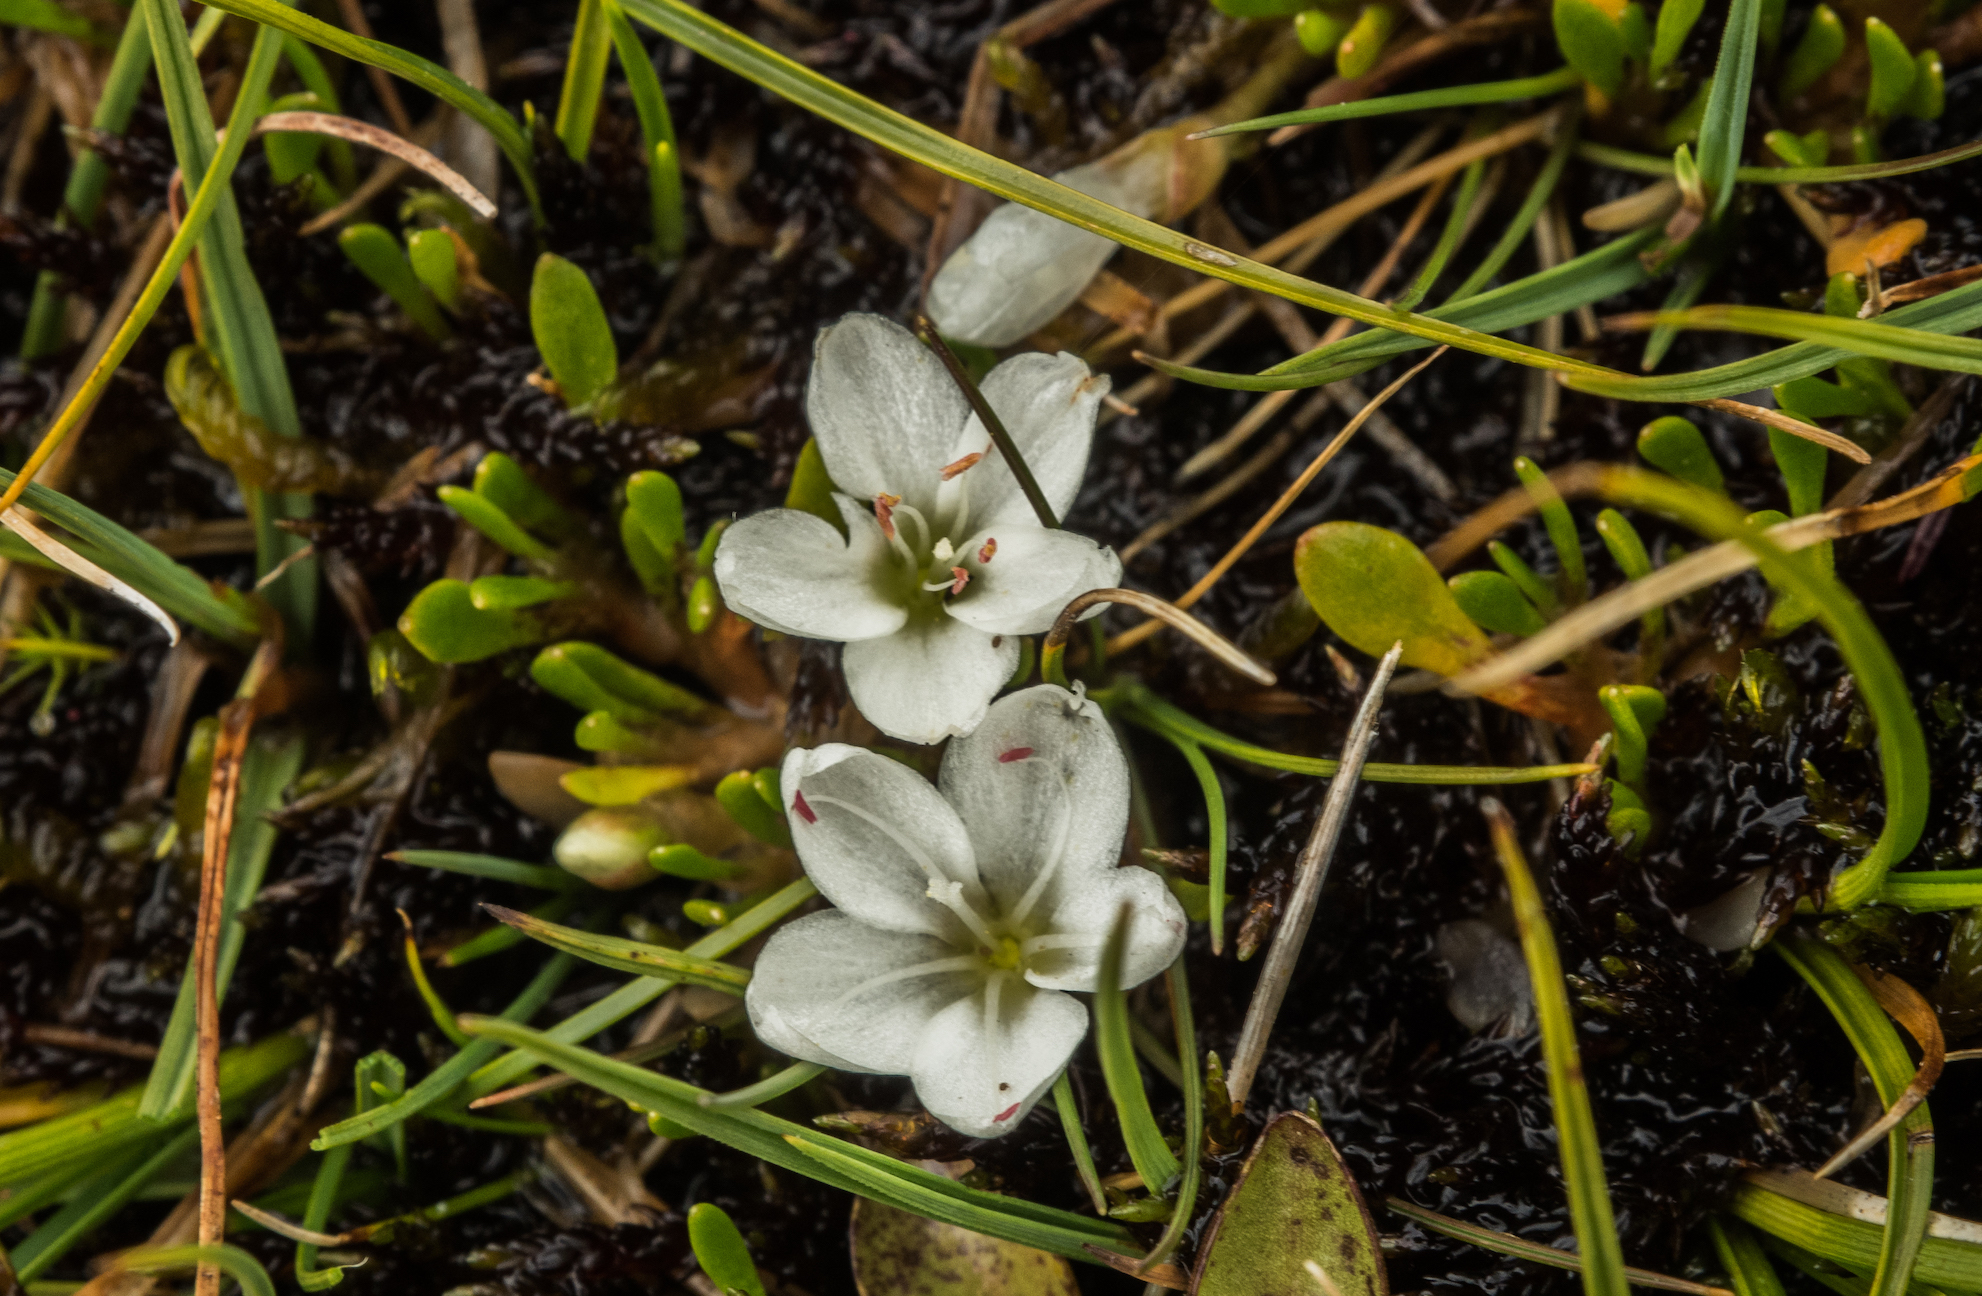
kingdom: Plantae
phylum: Tracheophyta
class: Magnoliopsida
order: Caryophyllales
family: Montiaceae
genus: Montia
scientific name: Montia sessiliflora
